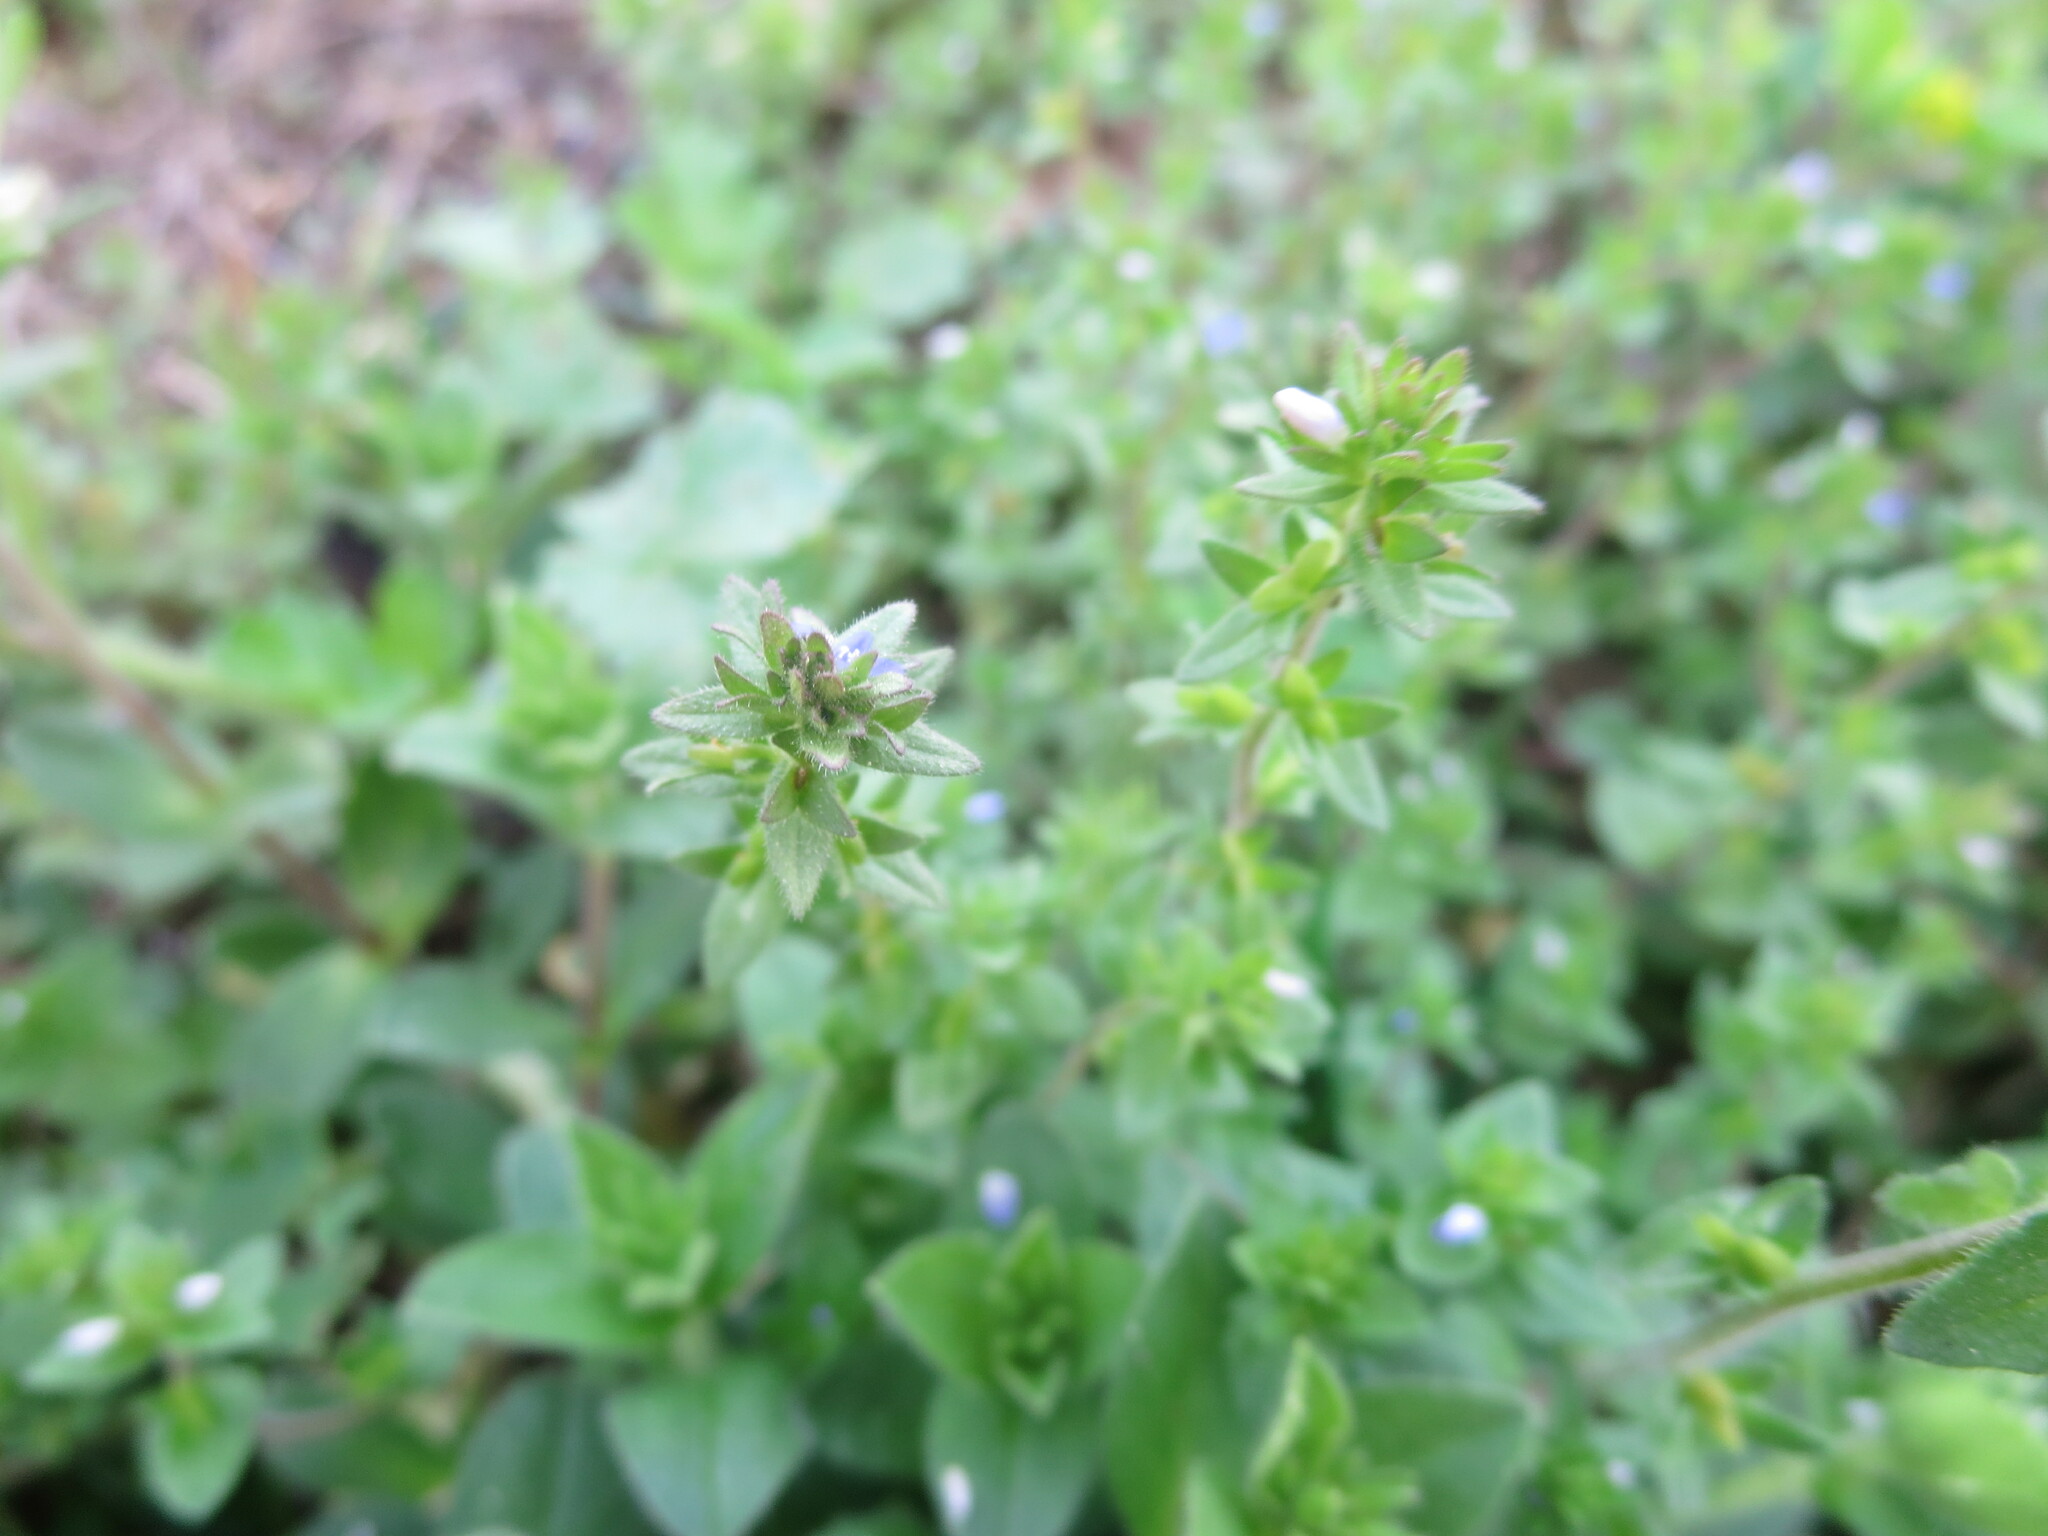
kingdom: Plantae
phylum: Tracheophyta
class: Magnoliopsida
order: Lamiales
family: Plantaginaceae
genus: Veronica
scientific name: Veronica arvensis
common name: Corn speedwell
